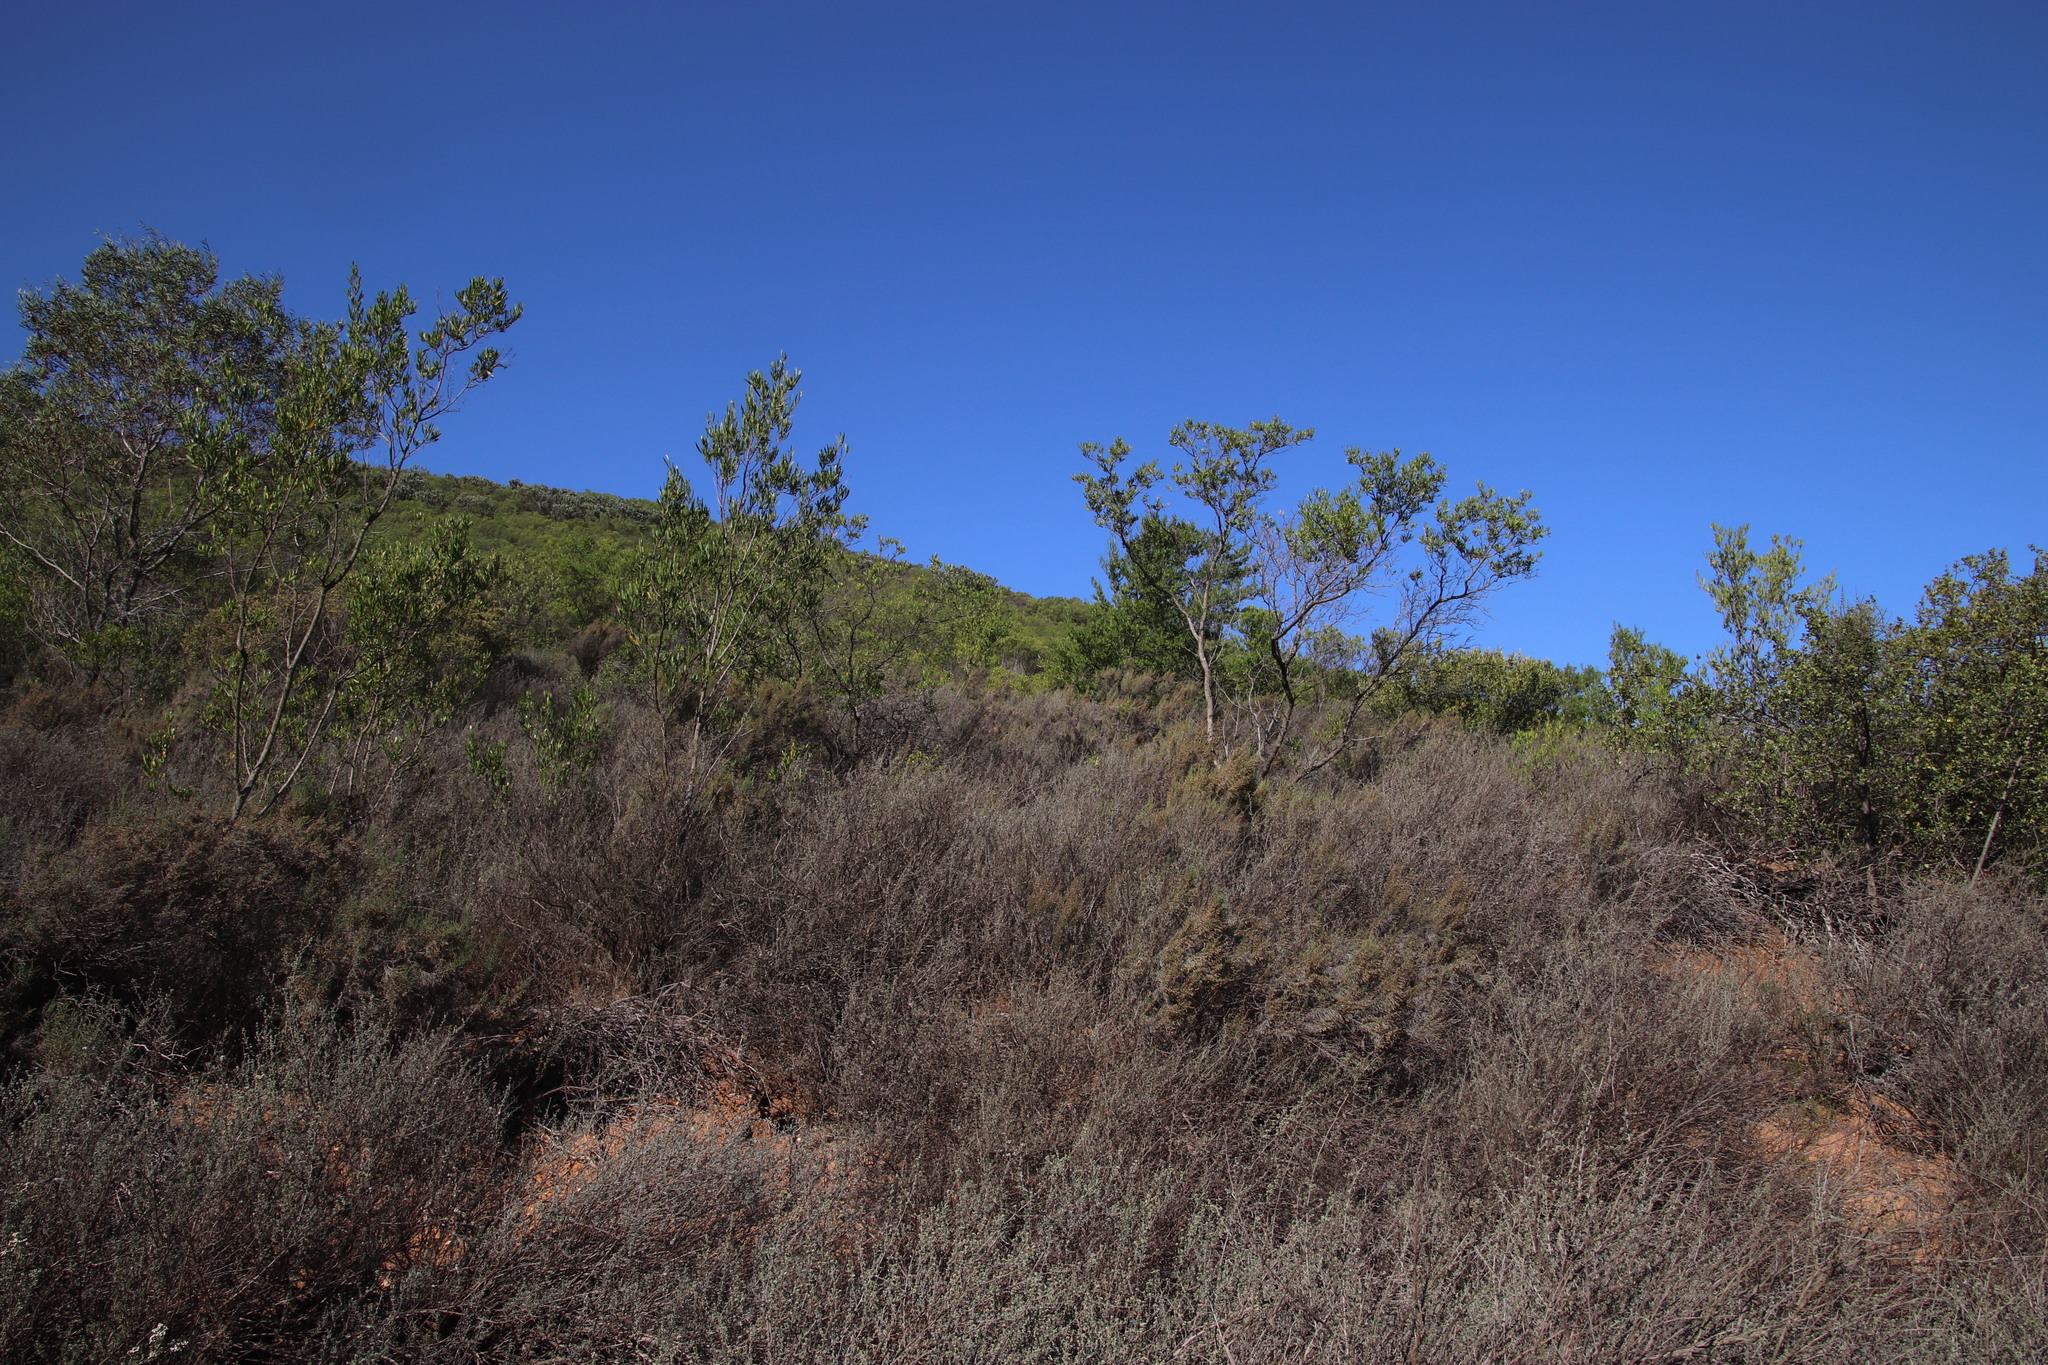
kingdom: Plantae
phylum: Tracheophyta
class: Magnoliopsida
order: Sapindales
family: Sapindaceae
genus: Dodonaea
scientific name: Dodonaea viscosa
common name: Hopbush
